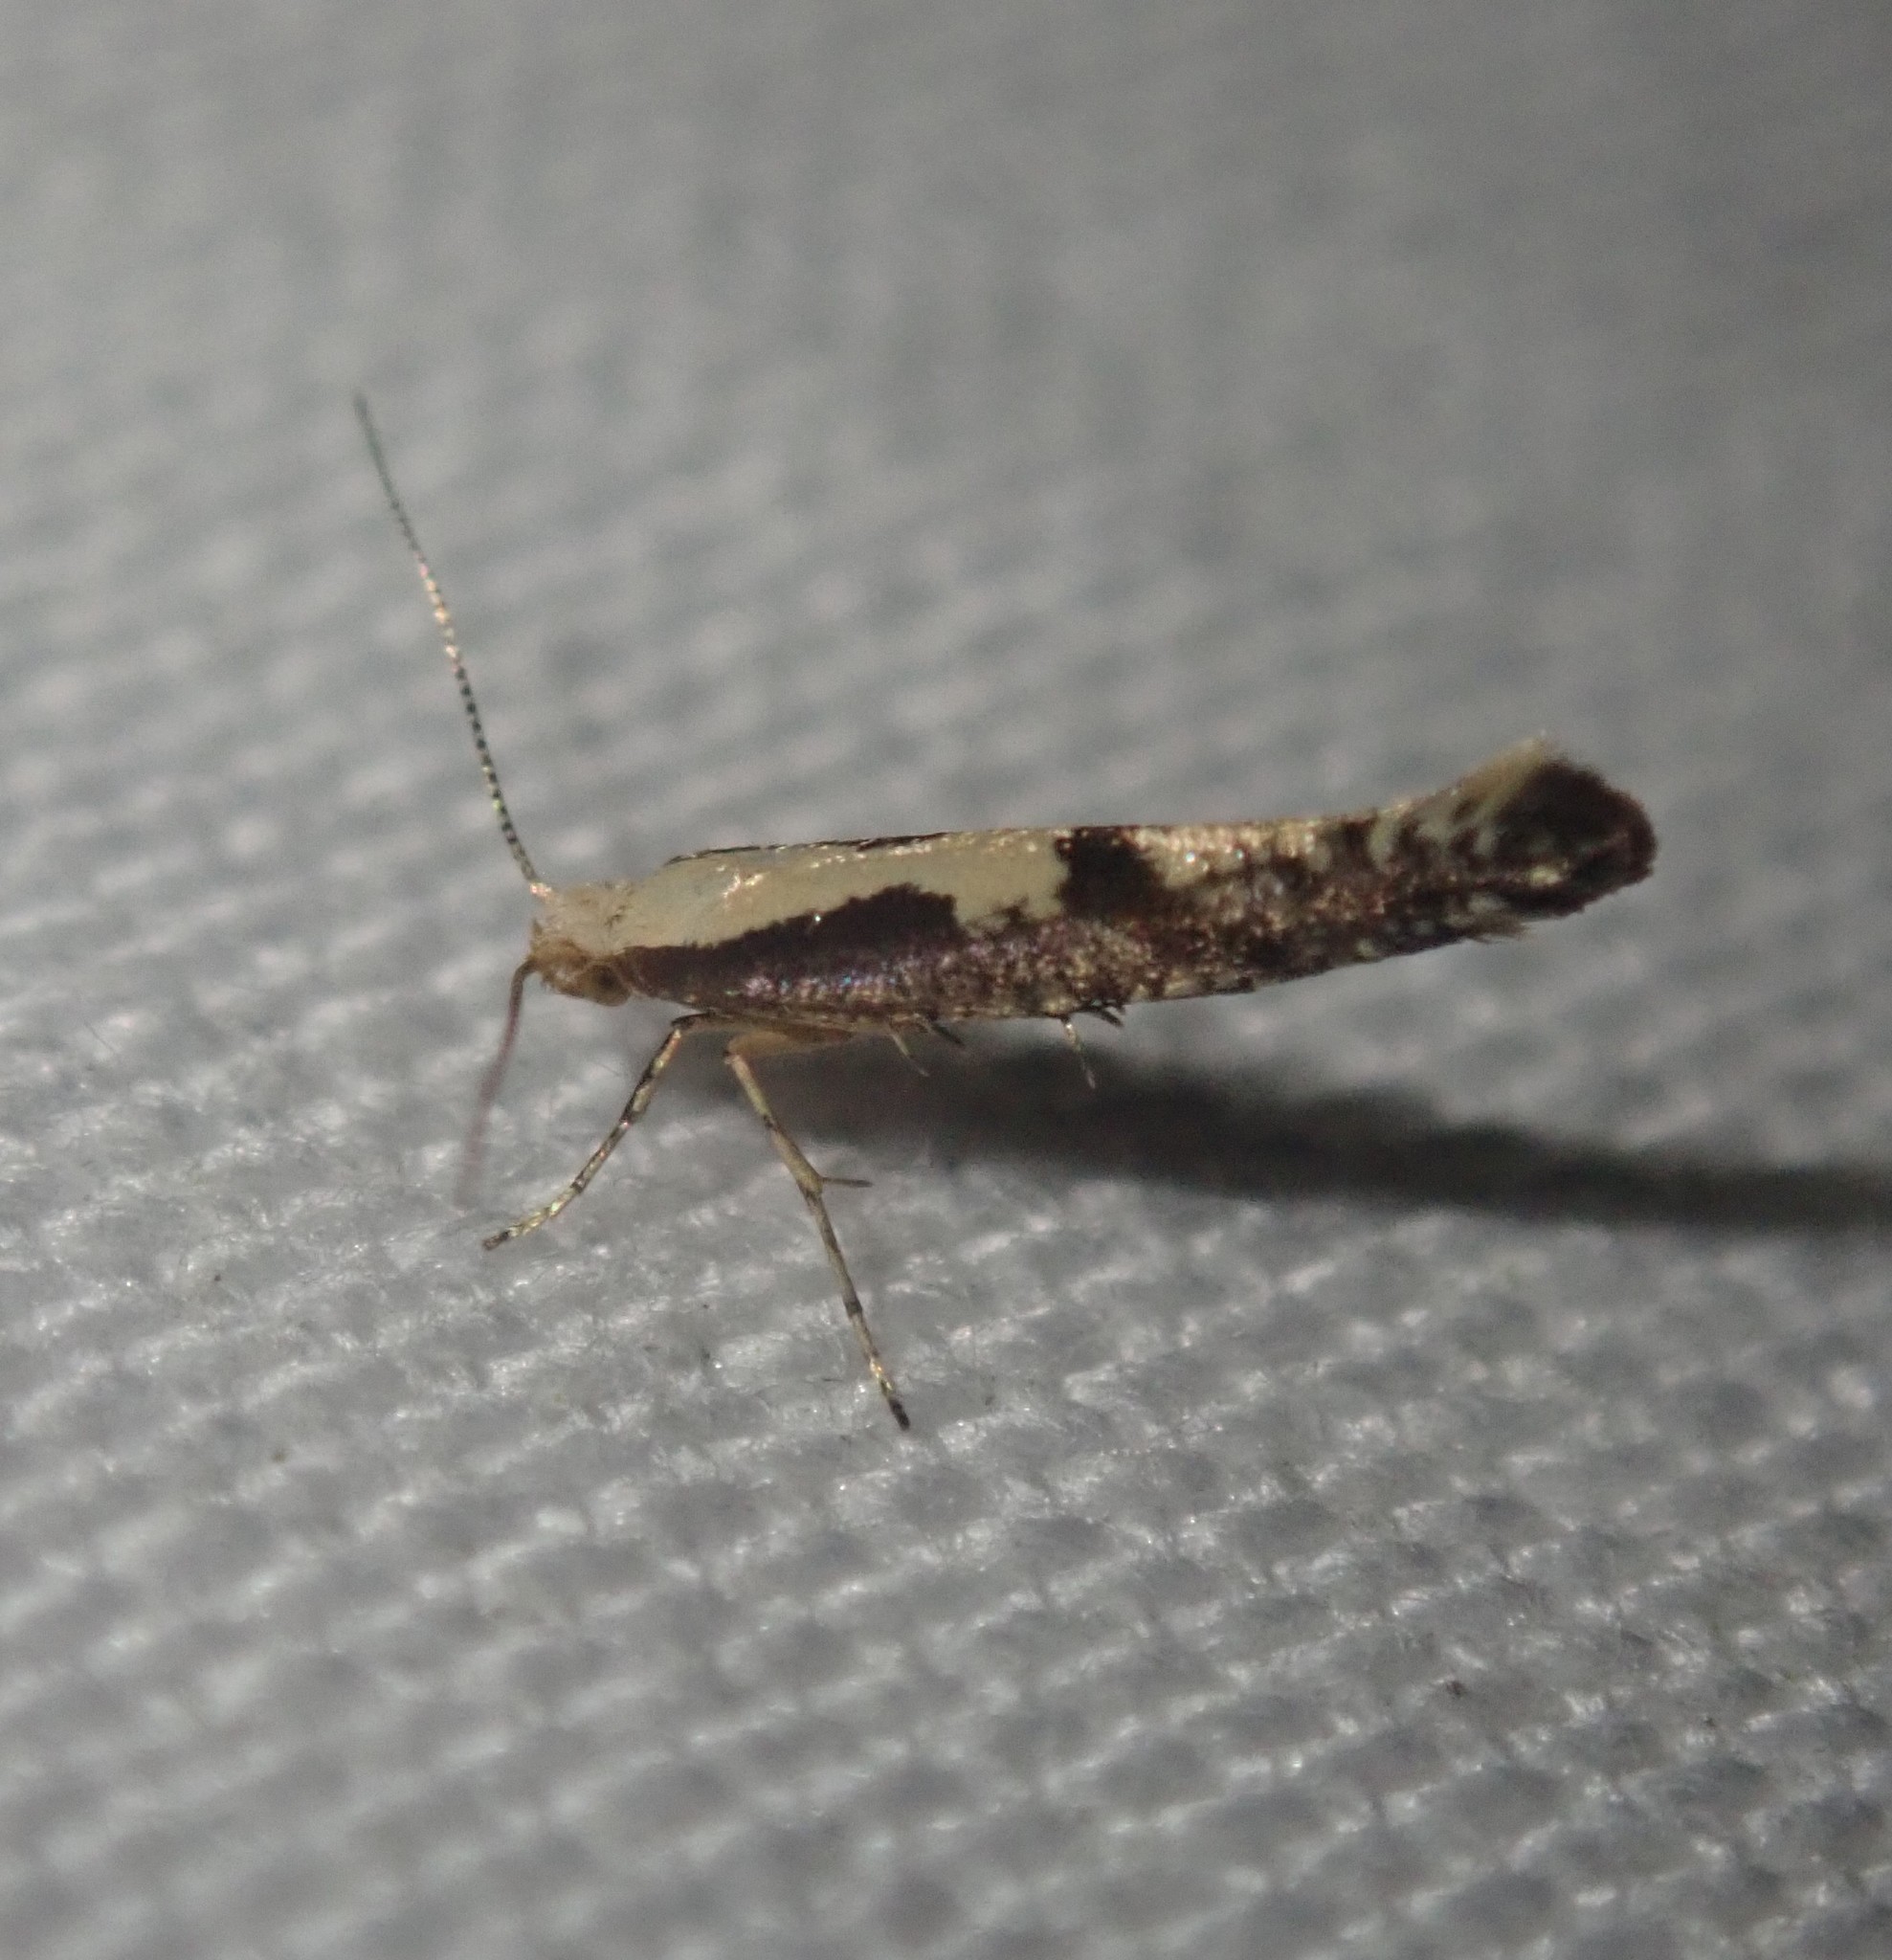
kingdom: Animalia
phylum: Arthropoda
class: Insecta
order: Lepidoptera
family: Argyresthiidae
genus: Argyresthia
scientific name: Argyresthia conjugella
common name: Apple fruit moth
